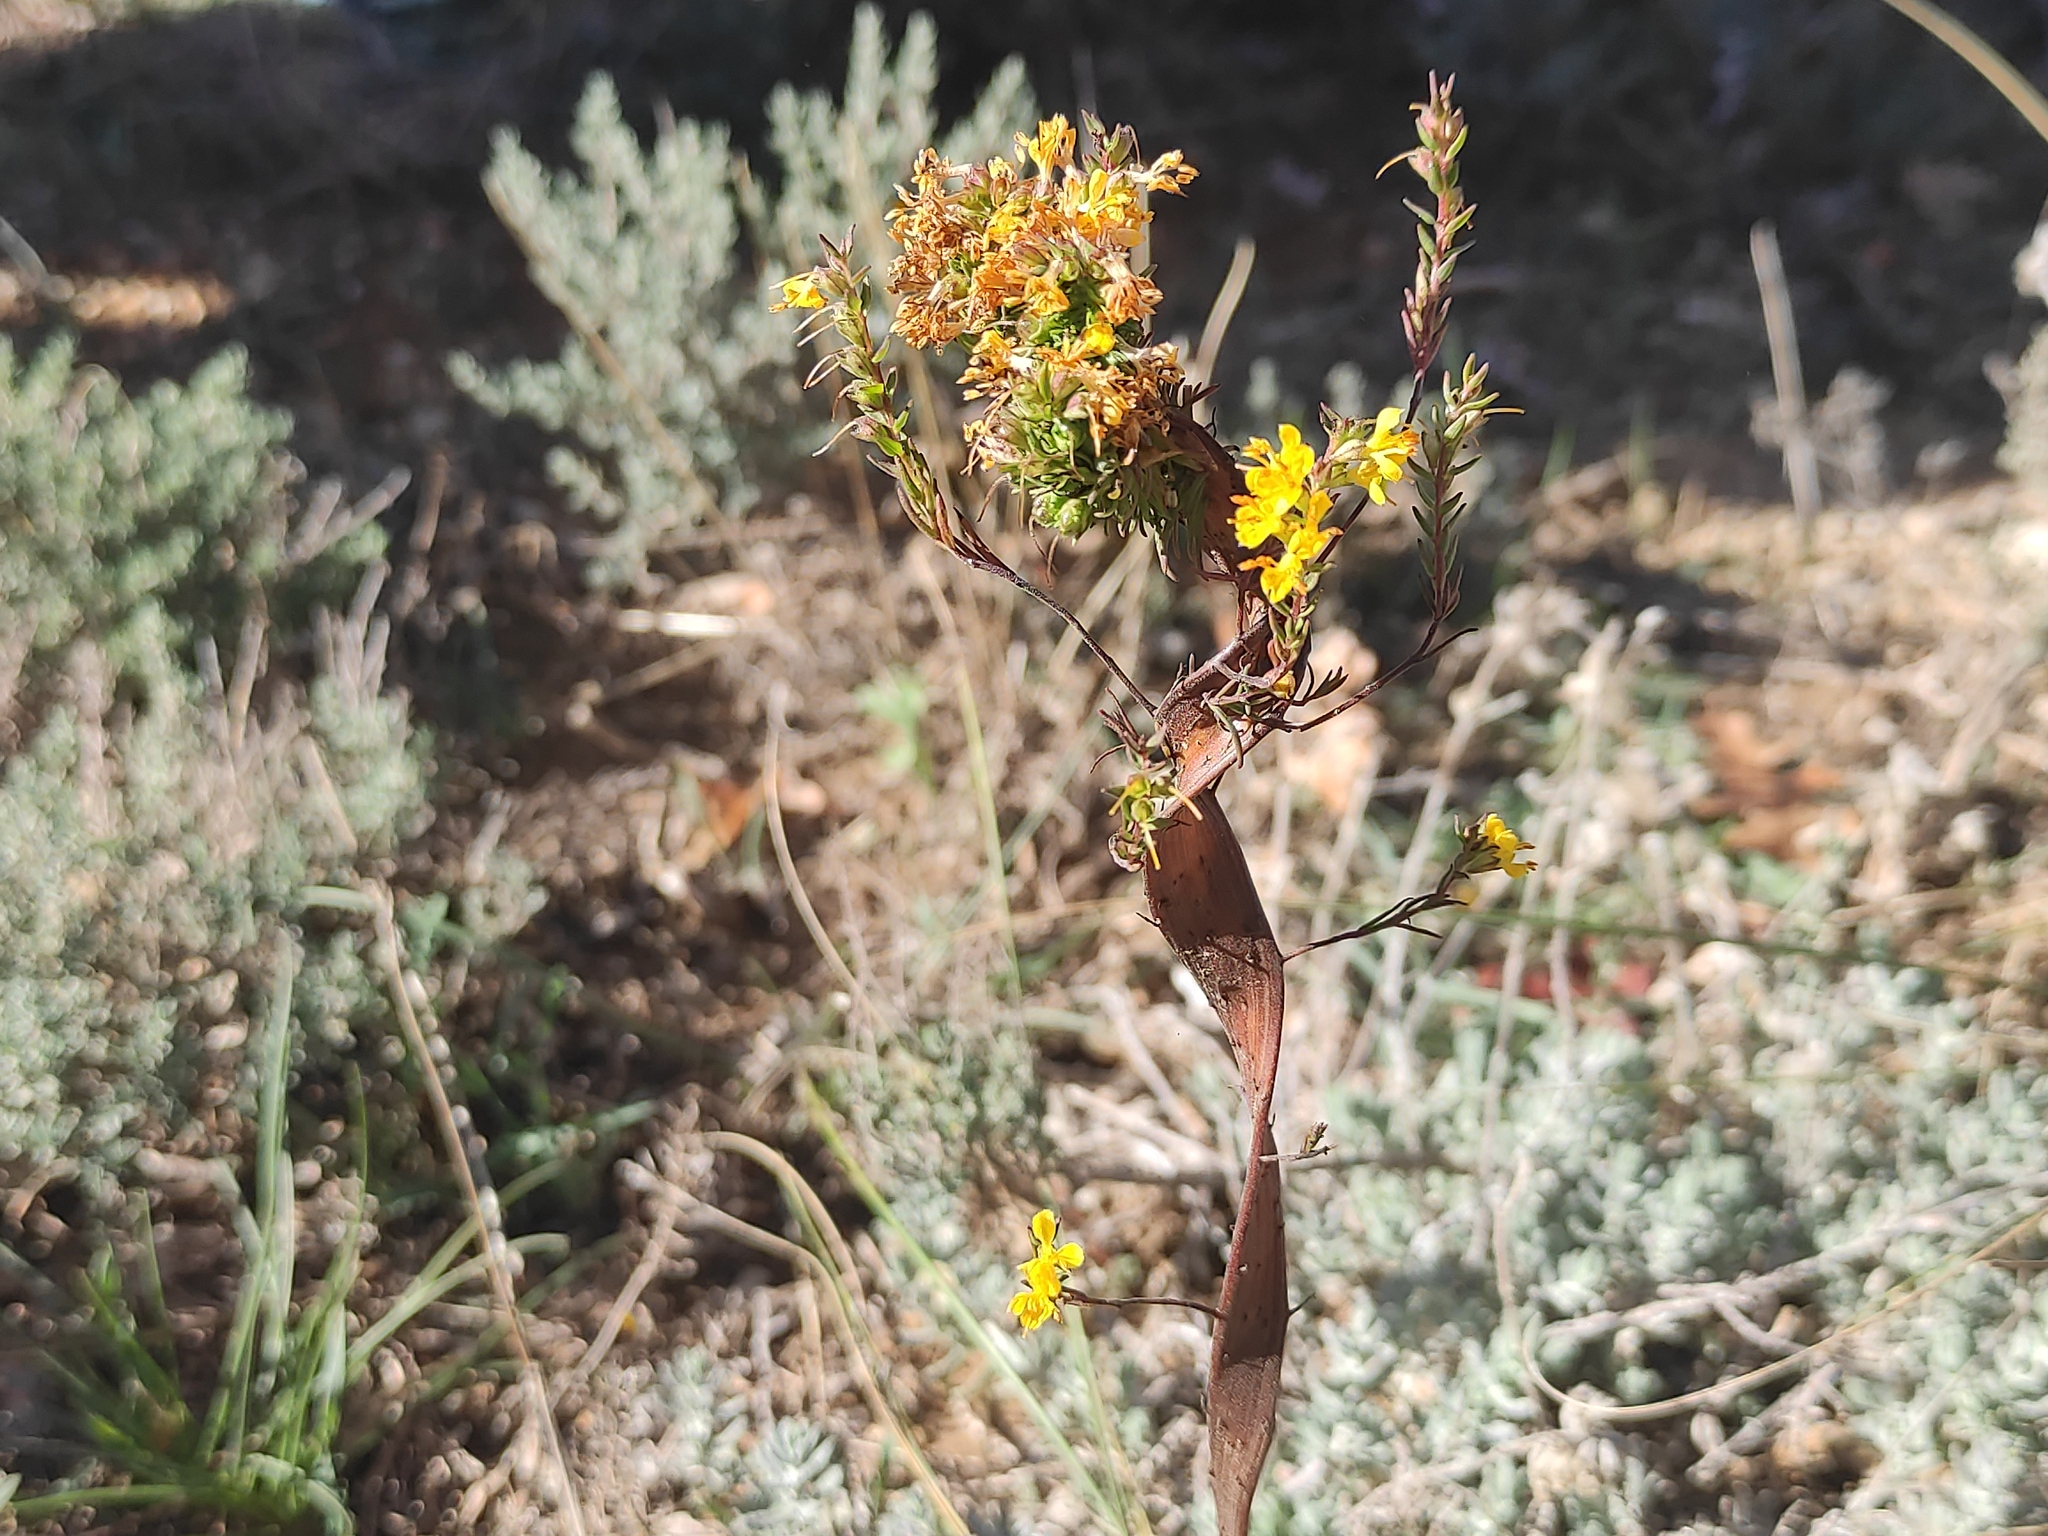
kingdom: Plantae
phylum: Tracheophyta
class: Magnoliopsida
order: Lamiales
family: Orobanchaceae
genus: Odontites
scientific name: Odontites luteus
